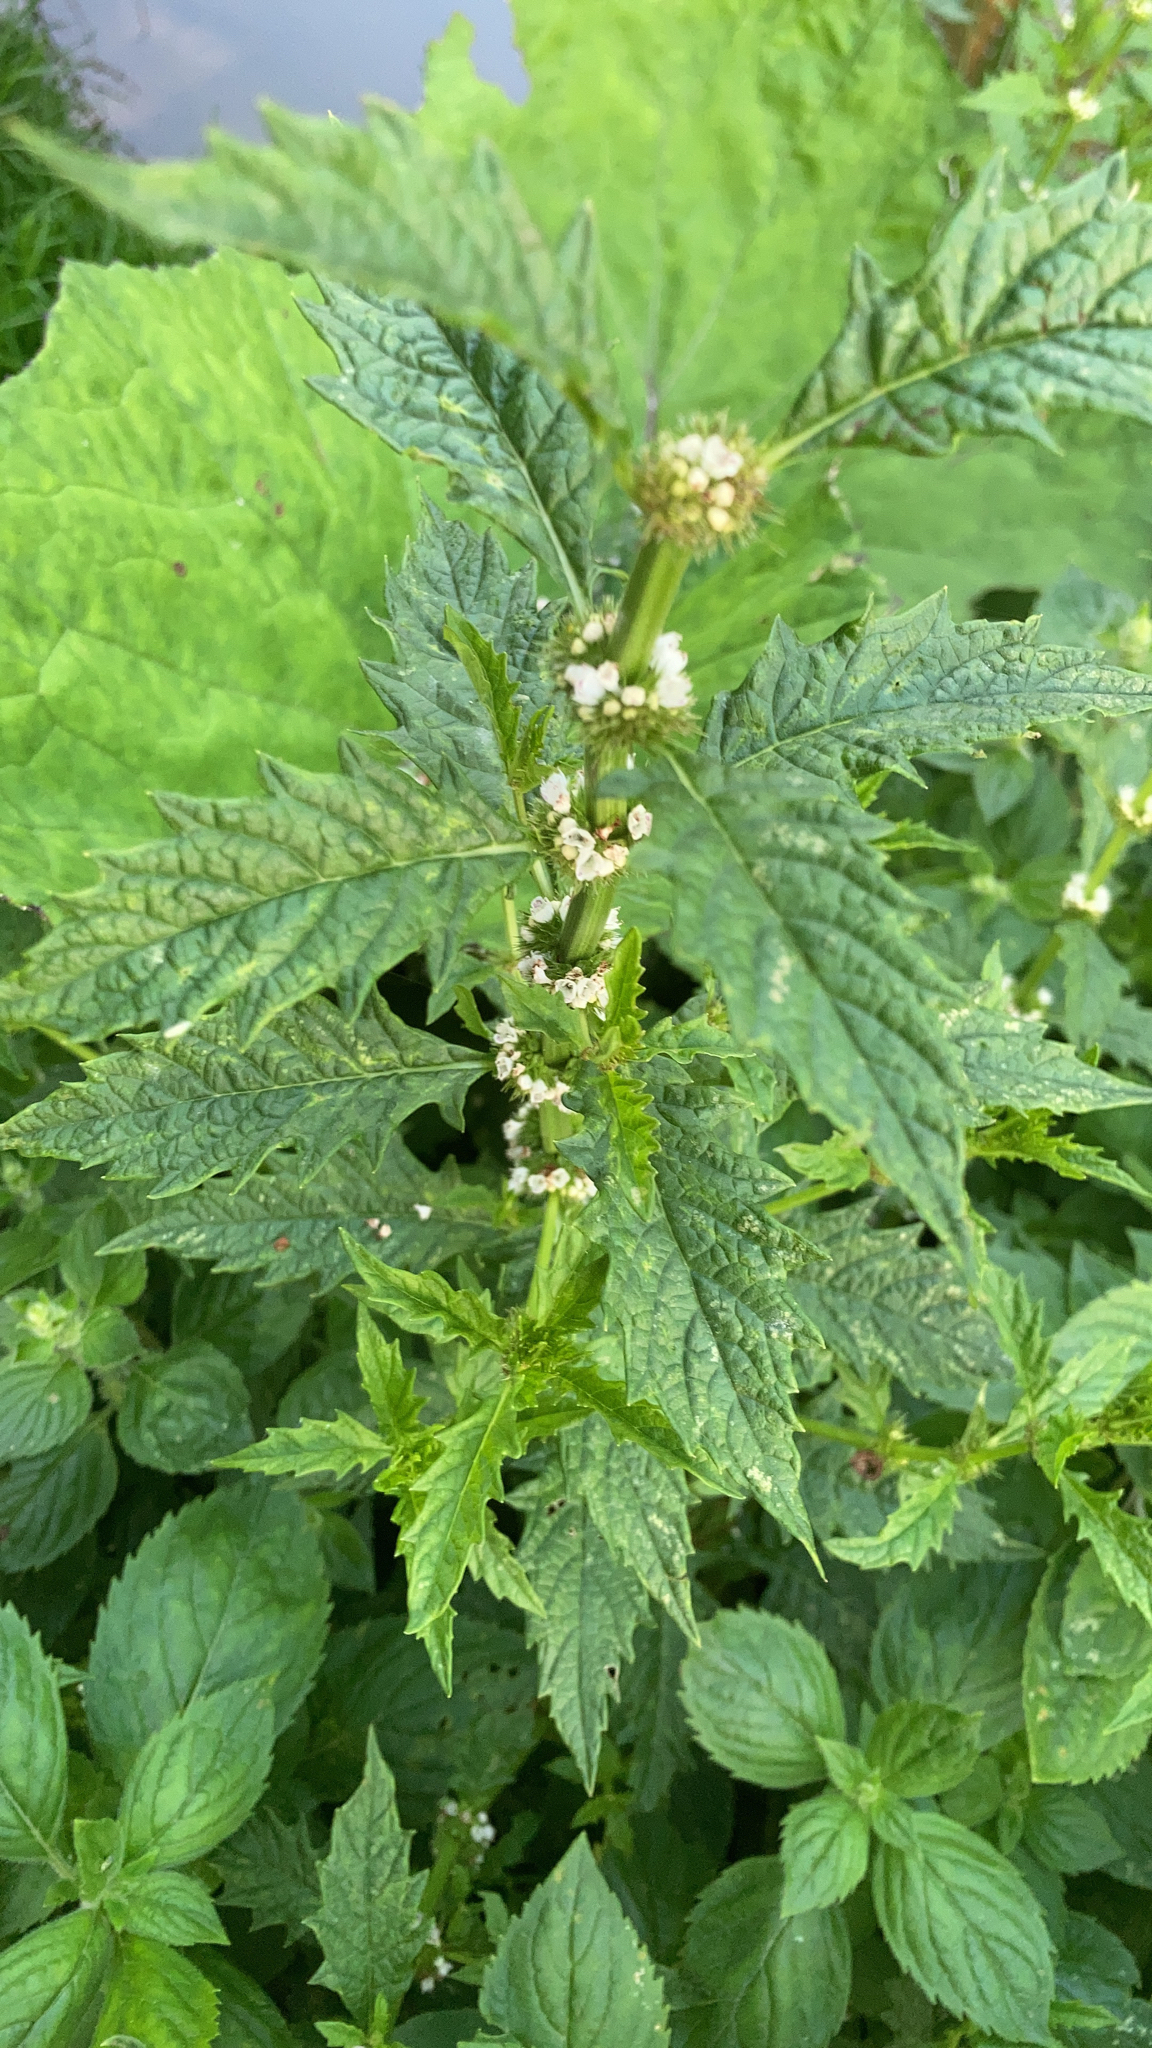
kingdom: Plantae
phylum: Tracheophyta
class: Magnoliopsida
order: Lamiales
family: Lamiaceae
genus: Lycopus
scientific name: Lycopus europaeus
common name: European bugleweed
